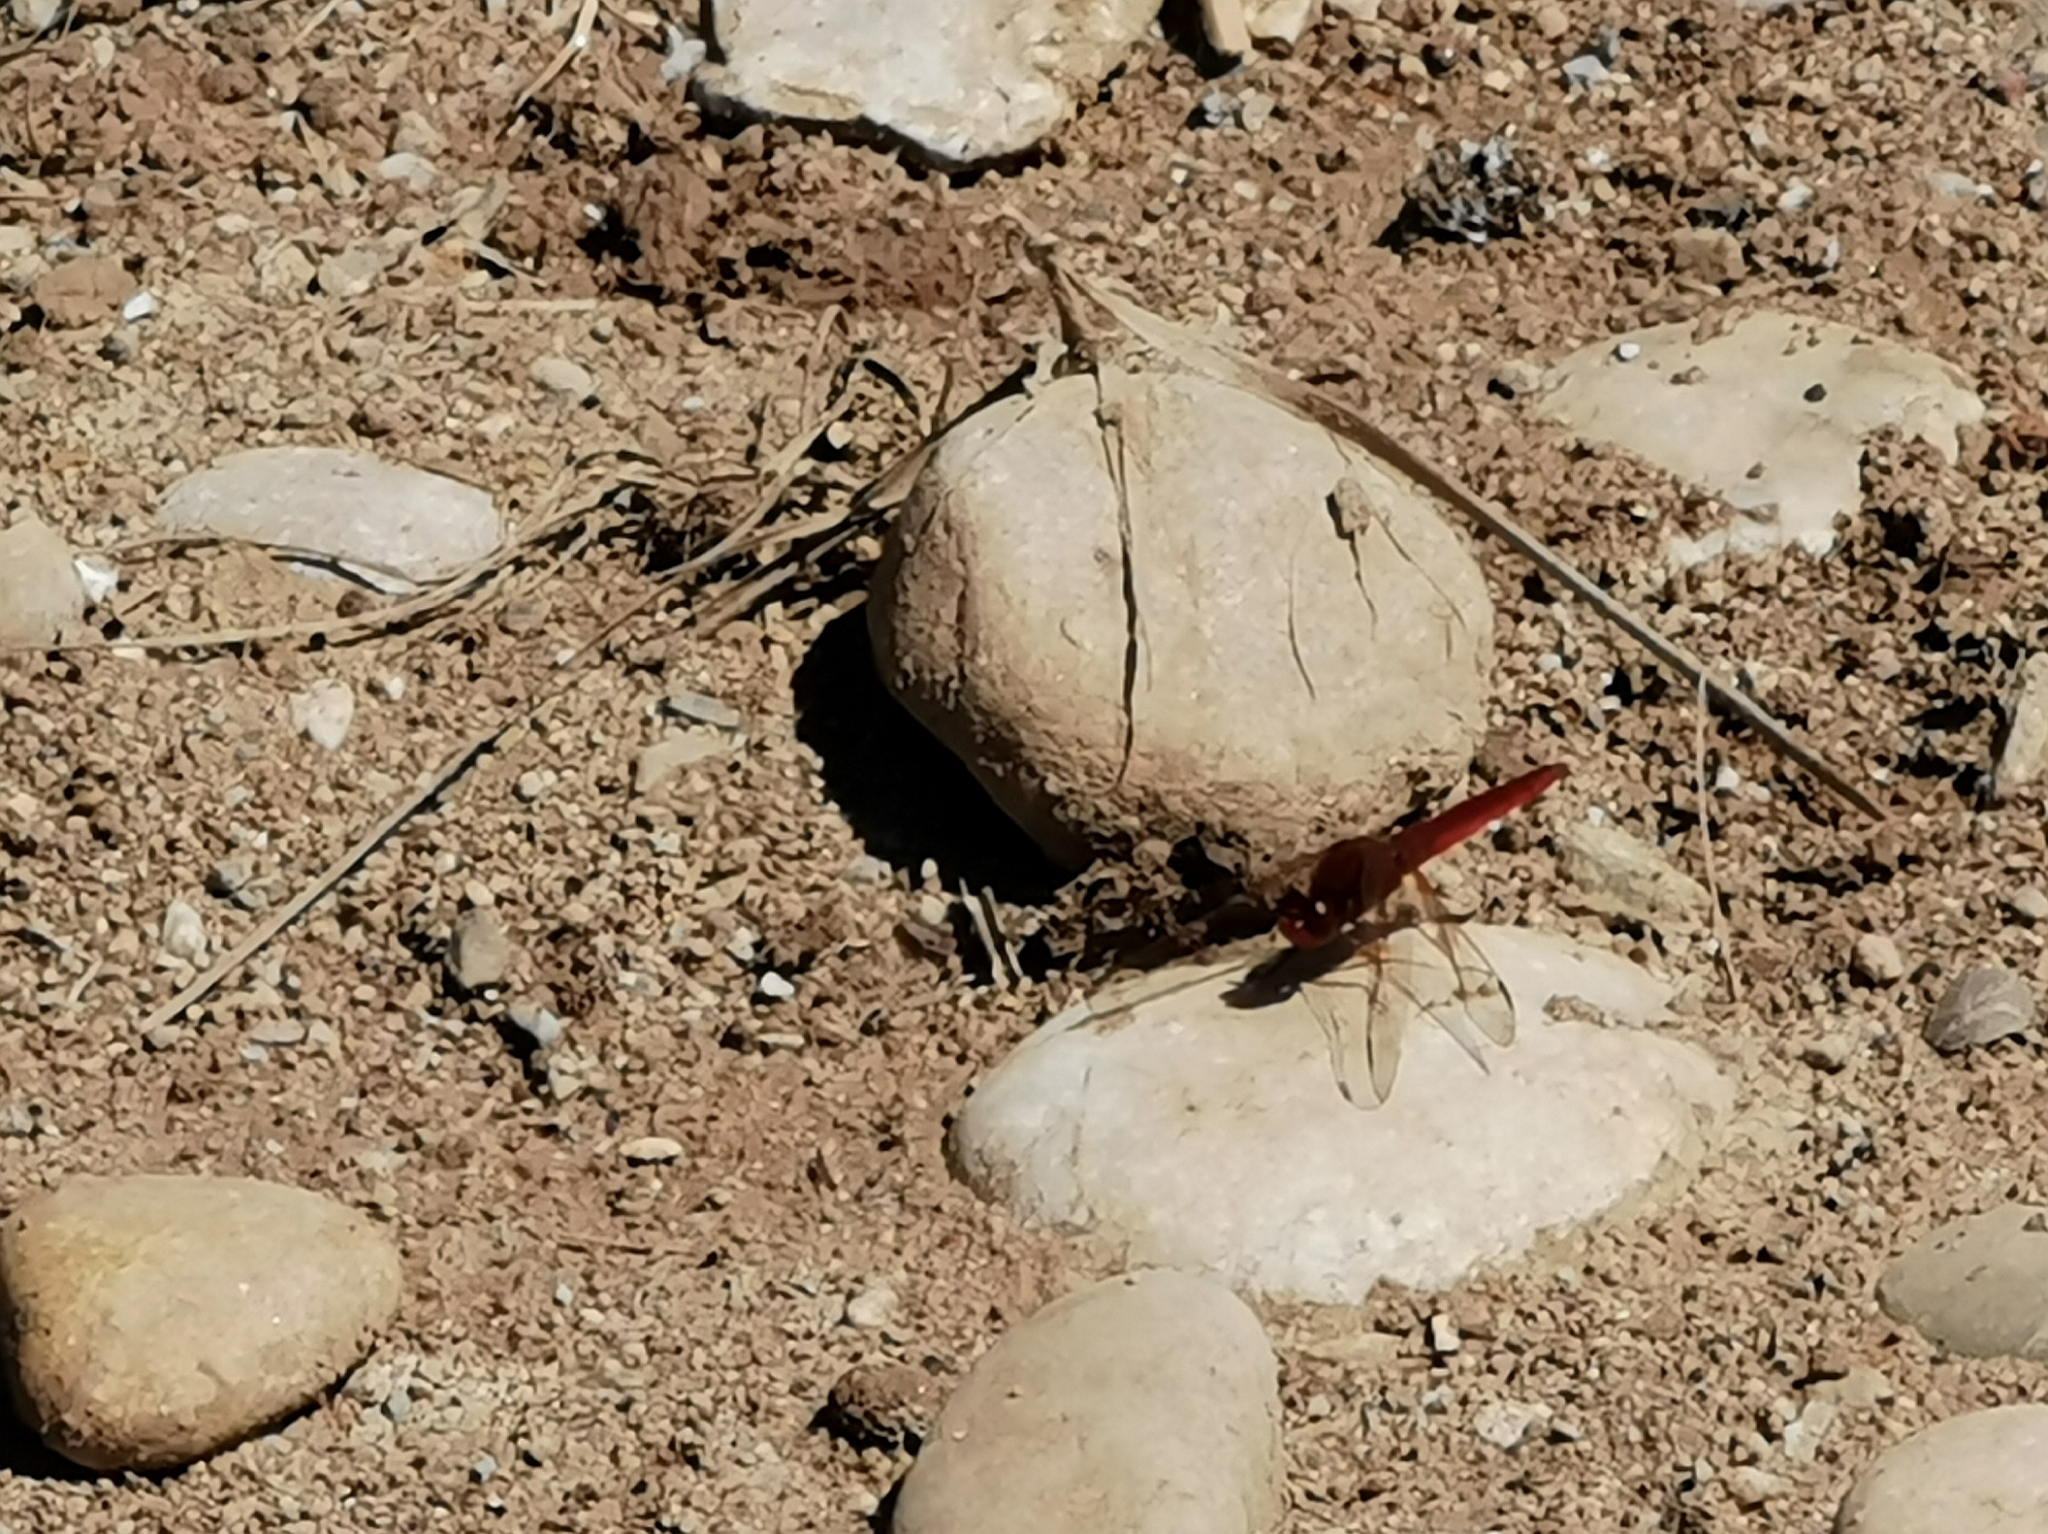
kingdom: Animalia
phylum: Arthropoda
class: Insecta
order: Odonata
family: Libellulidae
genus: Crocothemis
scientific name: Crocothemis erythraea
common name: Scarlet dragonfly
